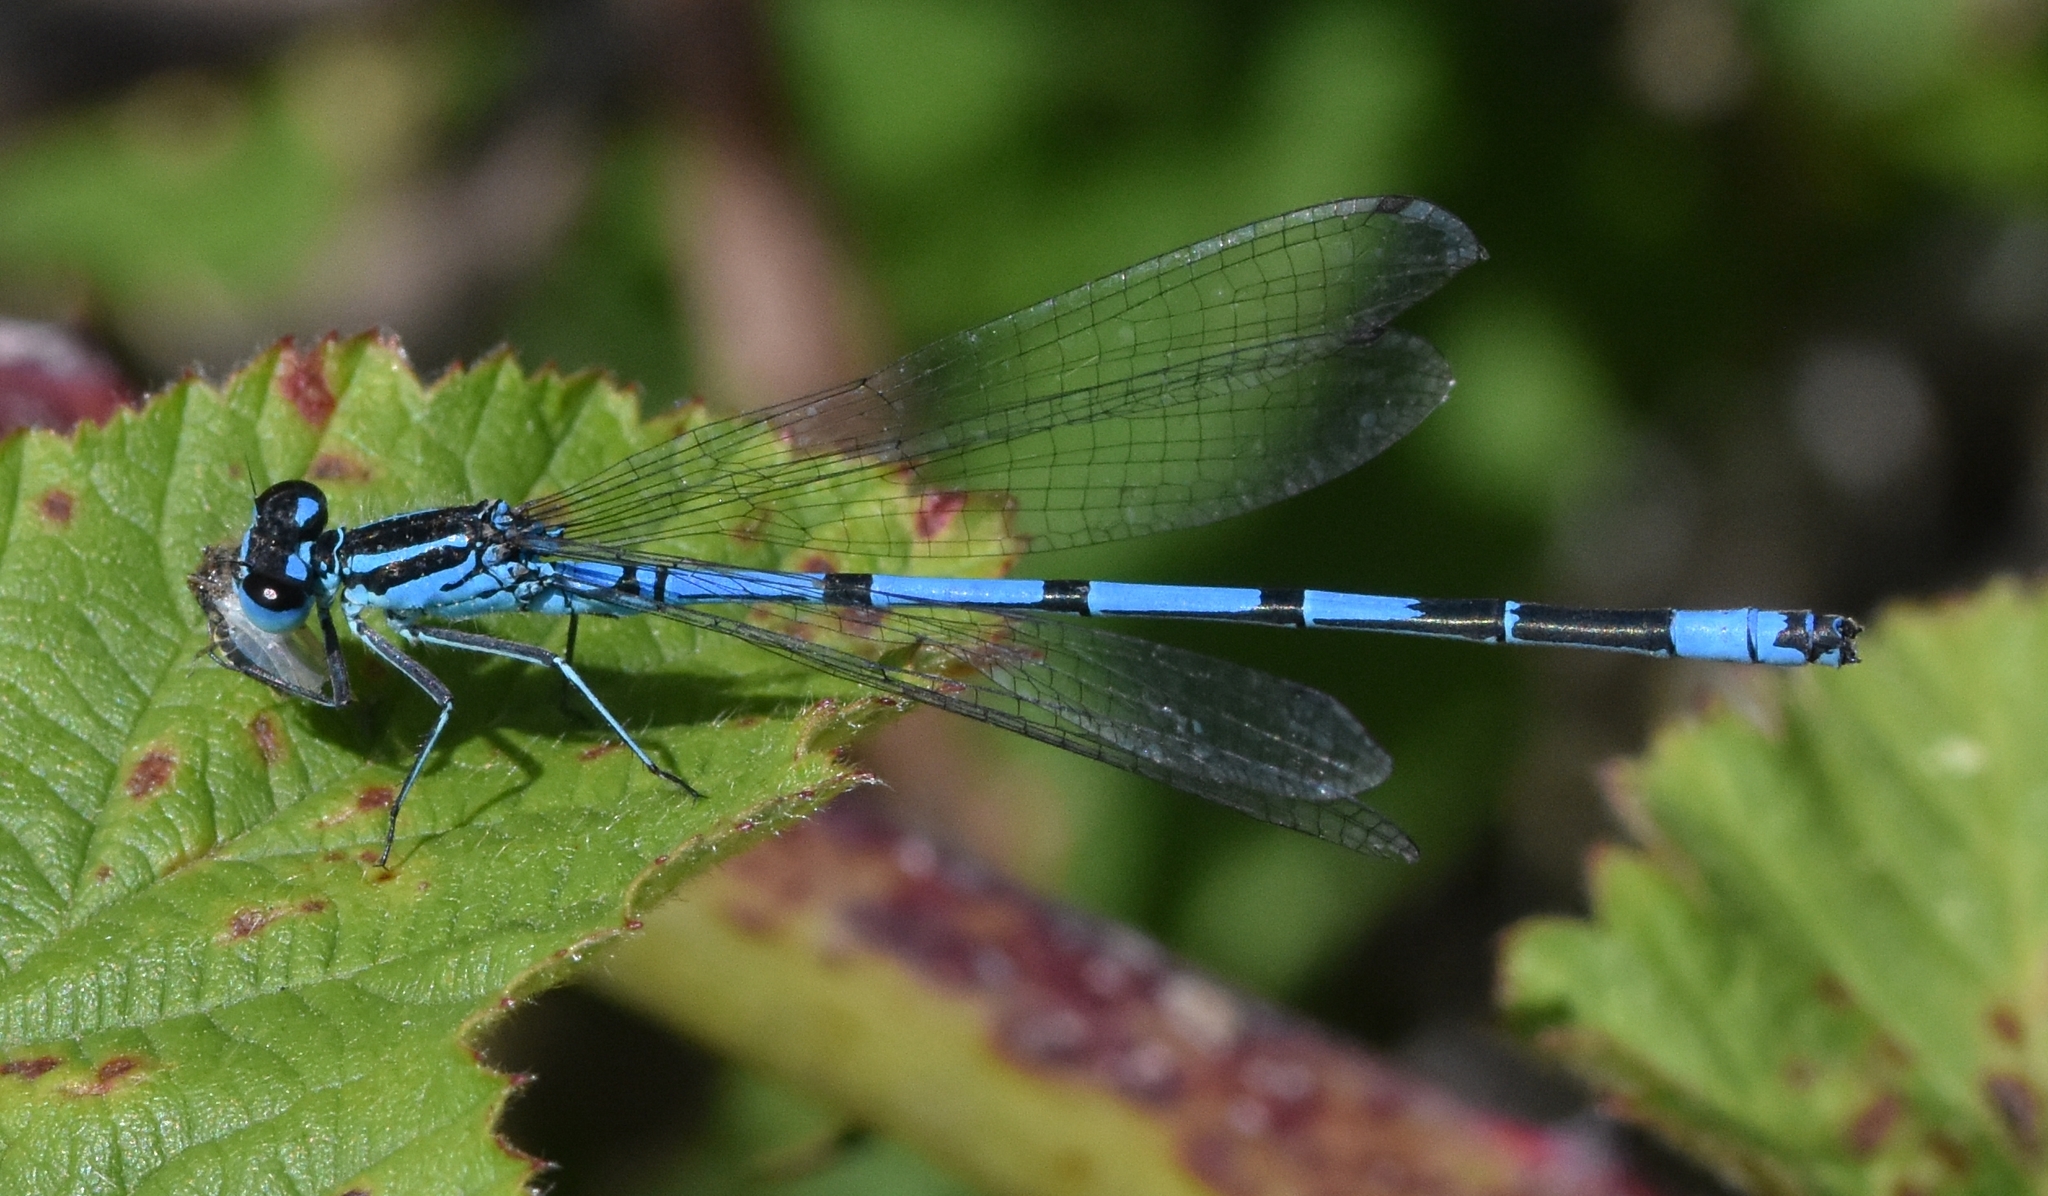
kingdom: Animalia
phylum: Arthropoda
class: Insecta
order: Odonata
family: Coenagrionidae
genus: Coenagrion
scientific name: Coenagrion puella
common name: Azure damselfly
